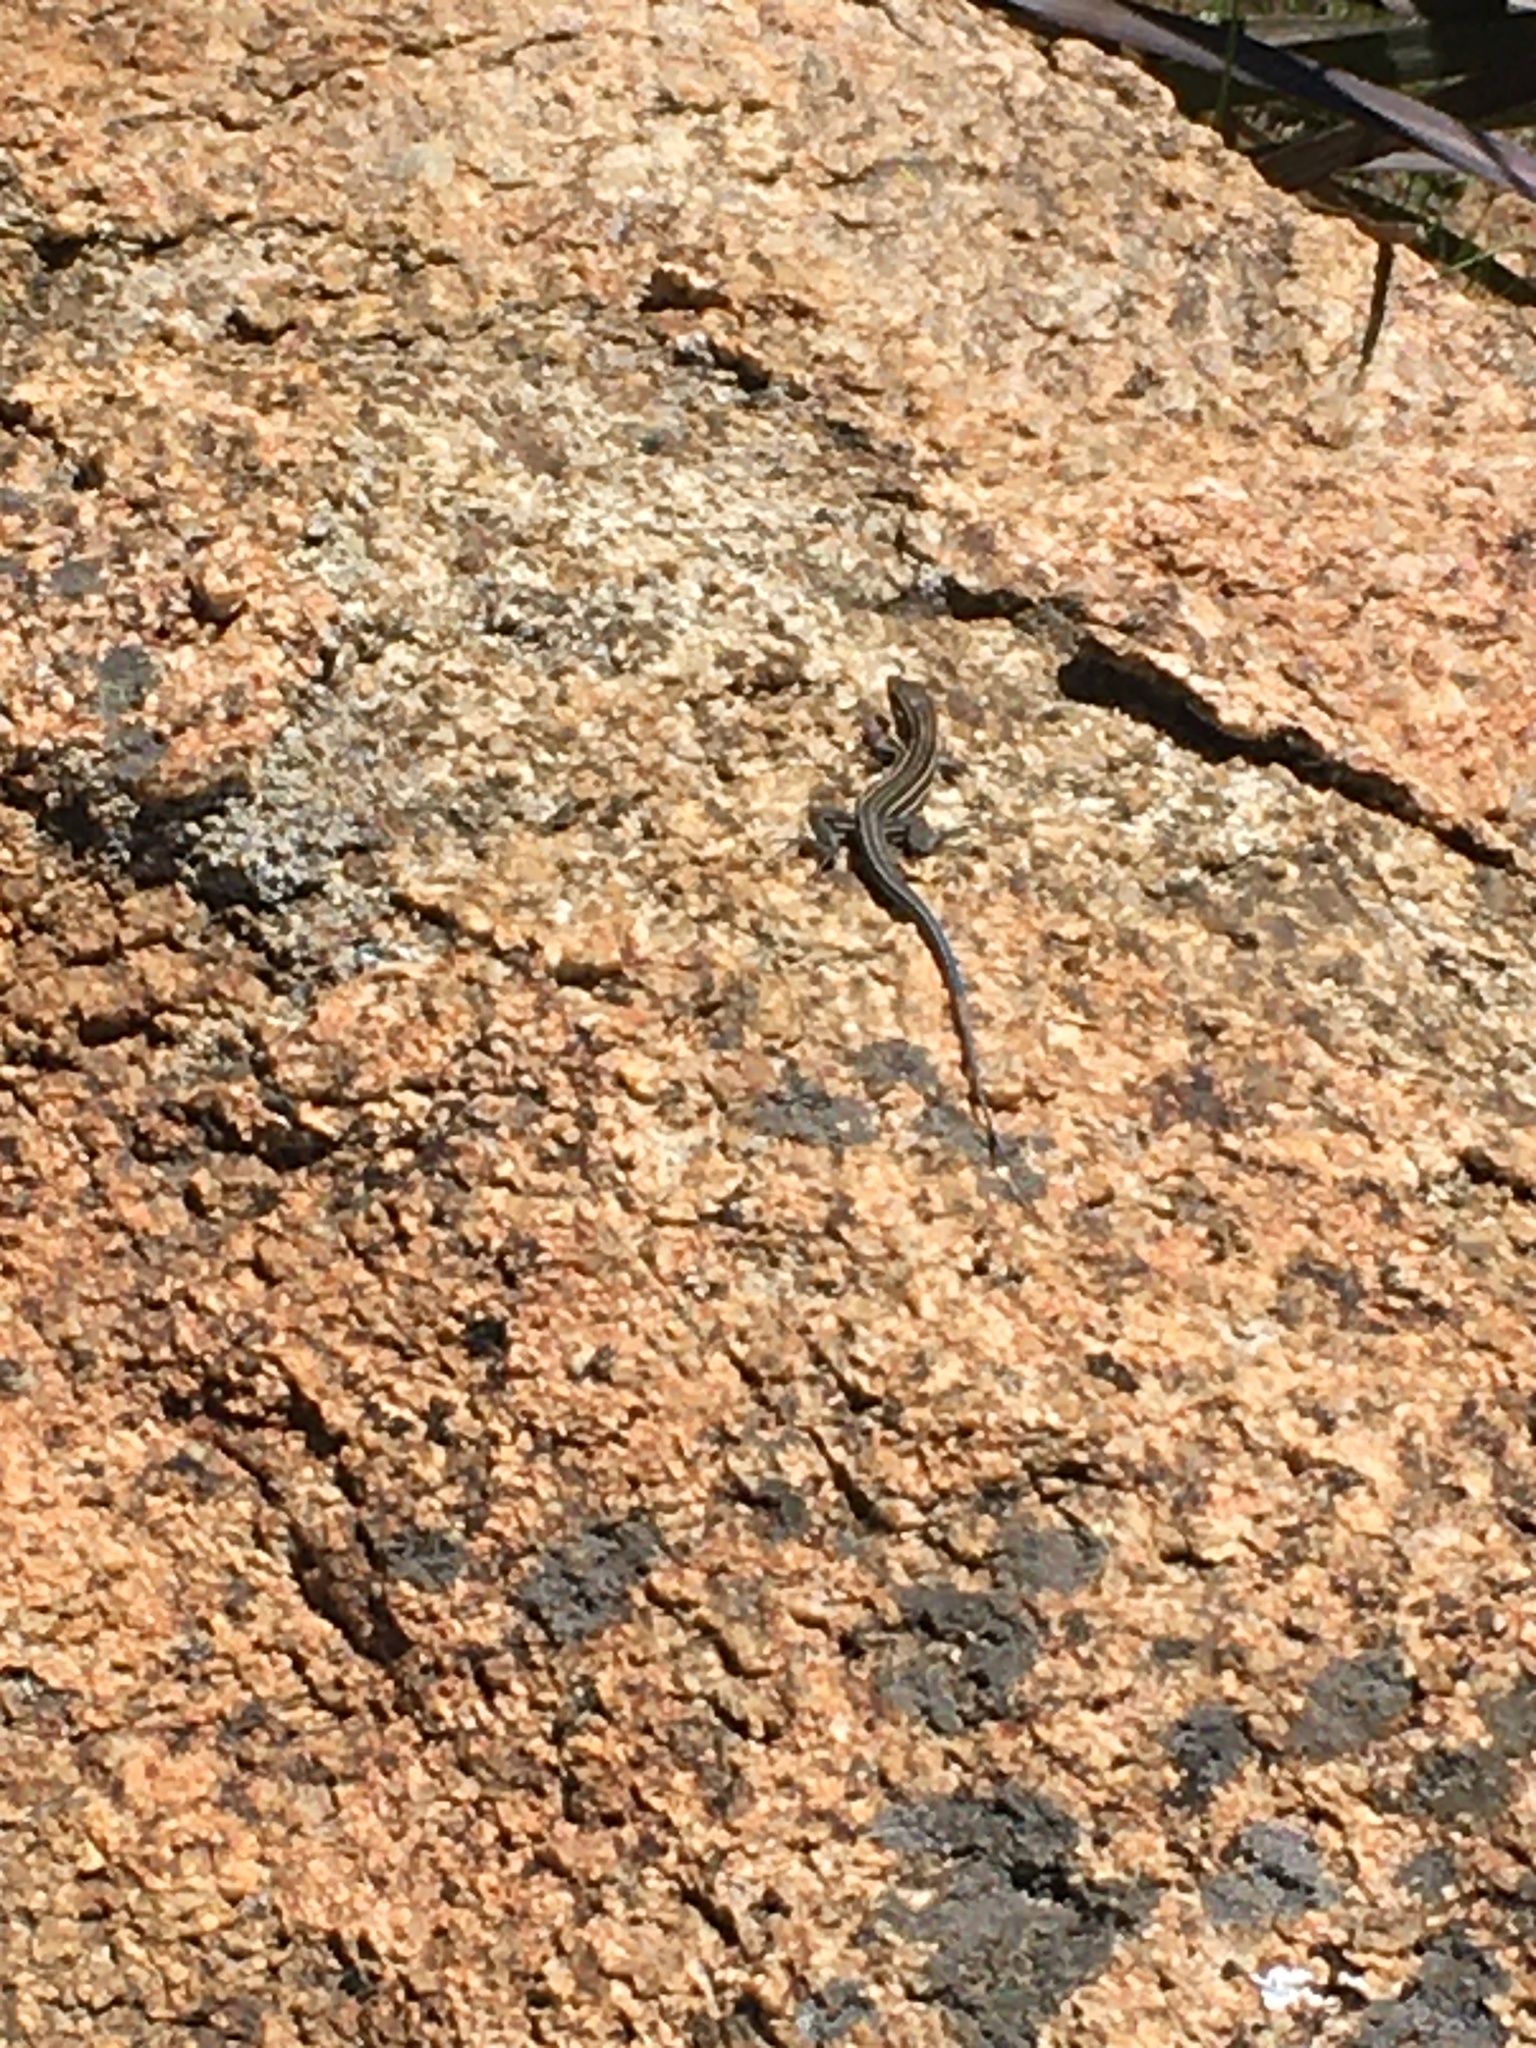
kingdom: Animalia
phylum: Chordata
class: Squamata
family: Teiidae
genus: Aspidoscelis
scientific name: Aspidoscelis hyperythrus
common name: Orange-throated race-runner
